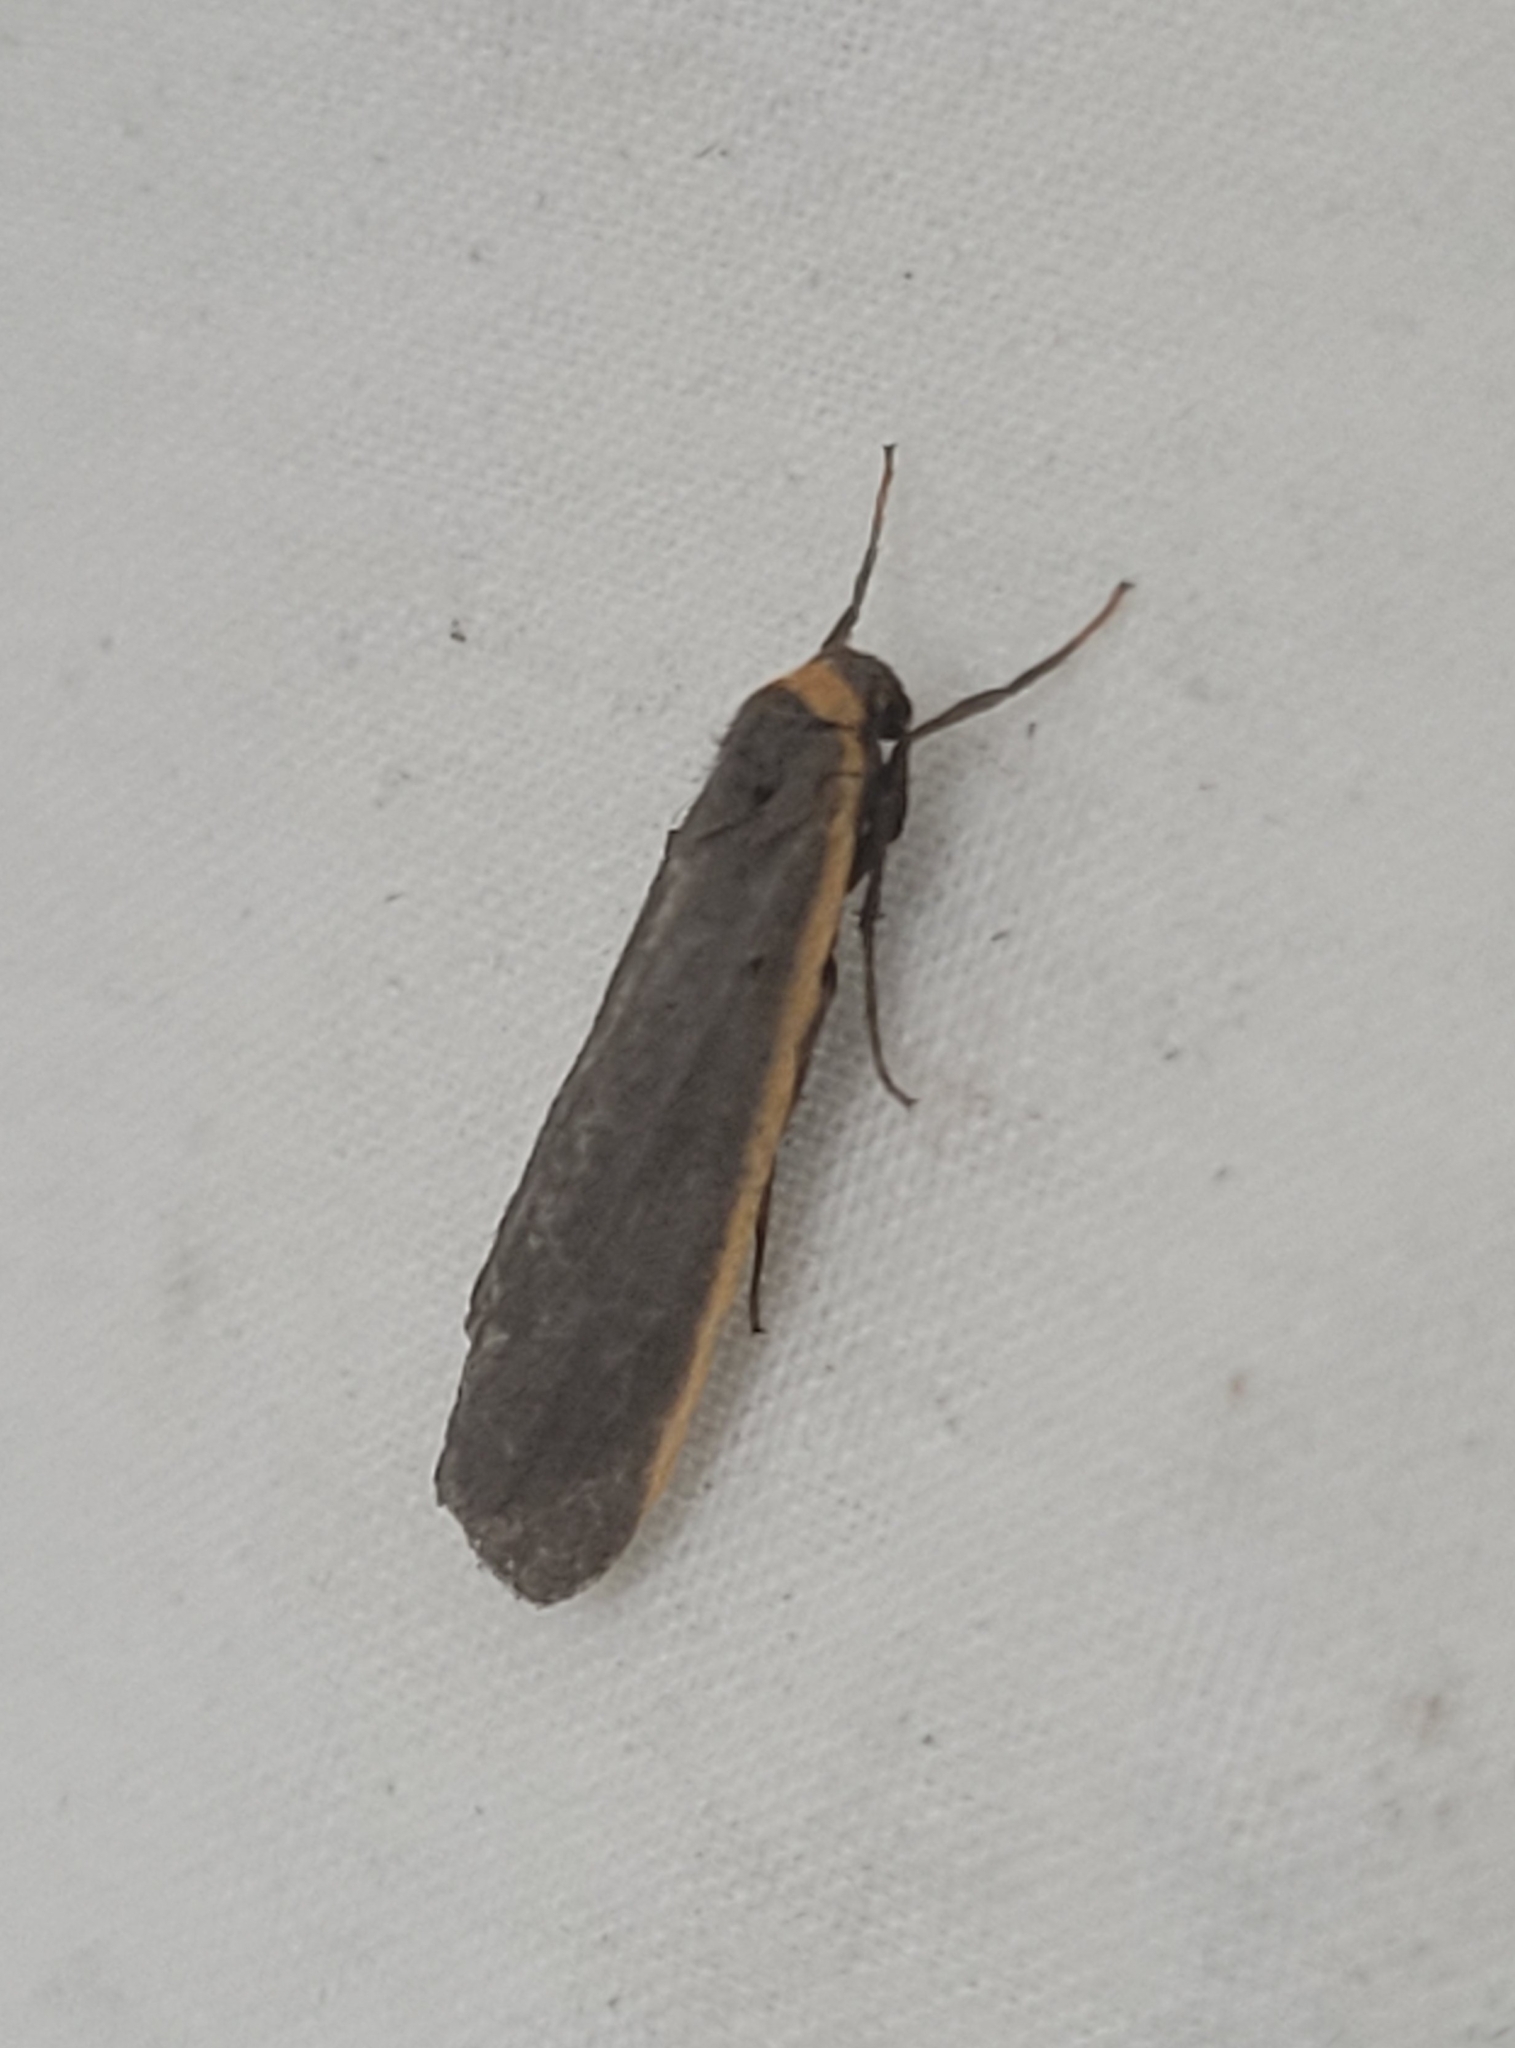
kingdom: Animalia
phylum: Arthropoda
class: Insecta
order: Lepidoptera
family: Erebidae
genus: Manulea
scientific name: Manulea bicolor
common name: Bicolored moth
